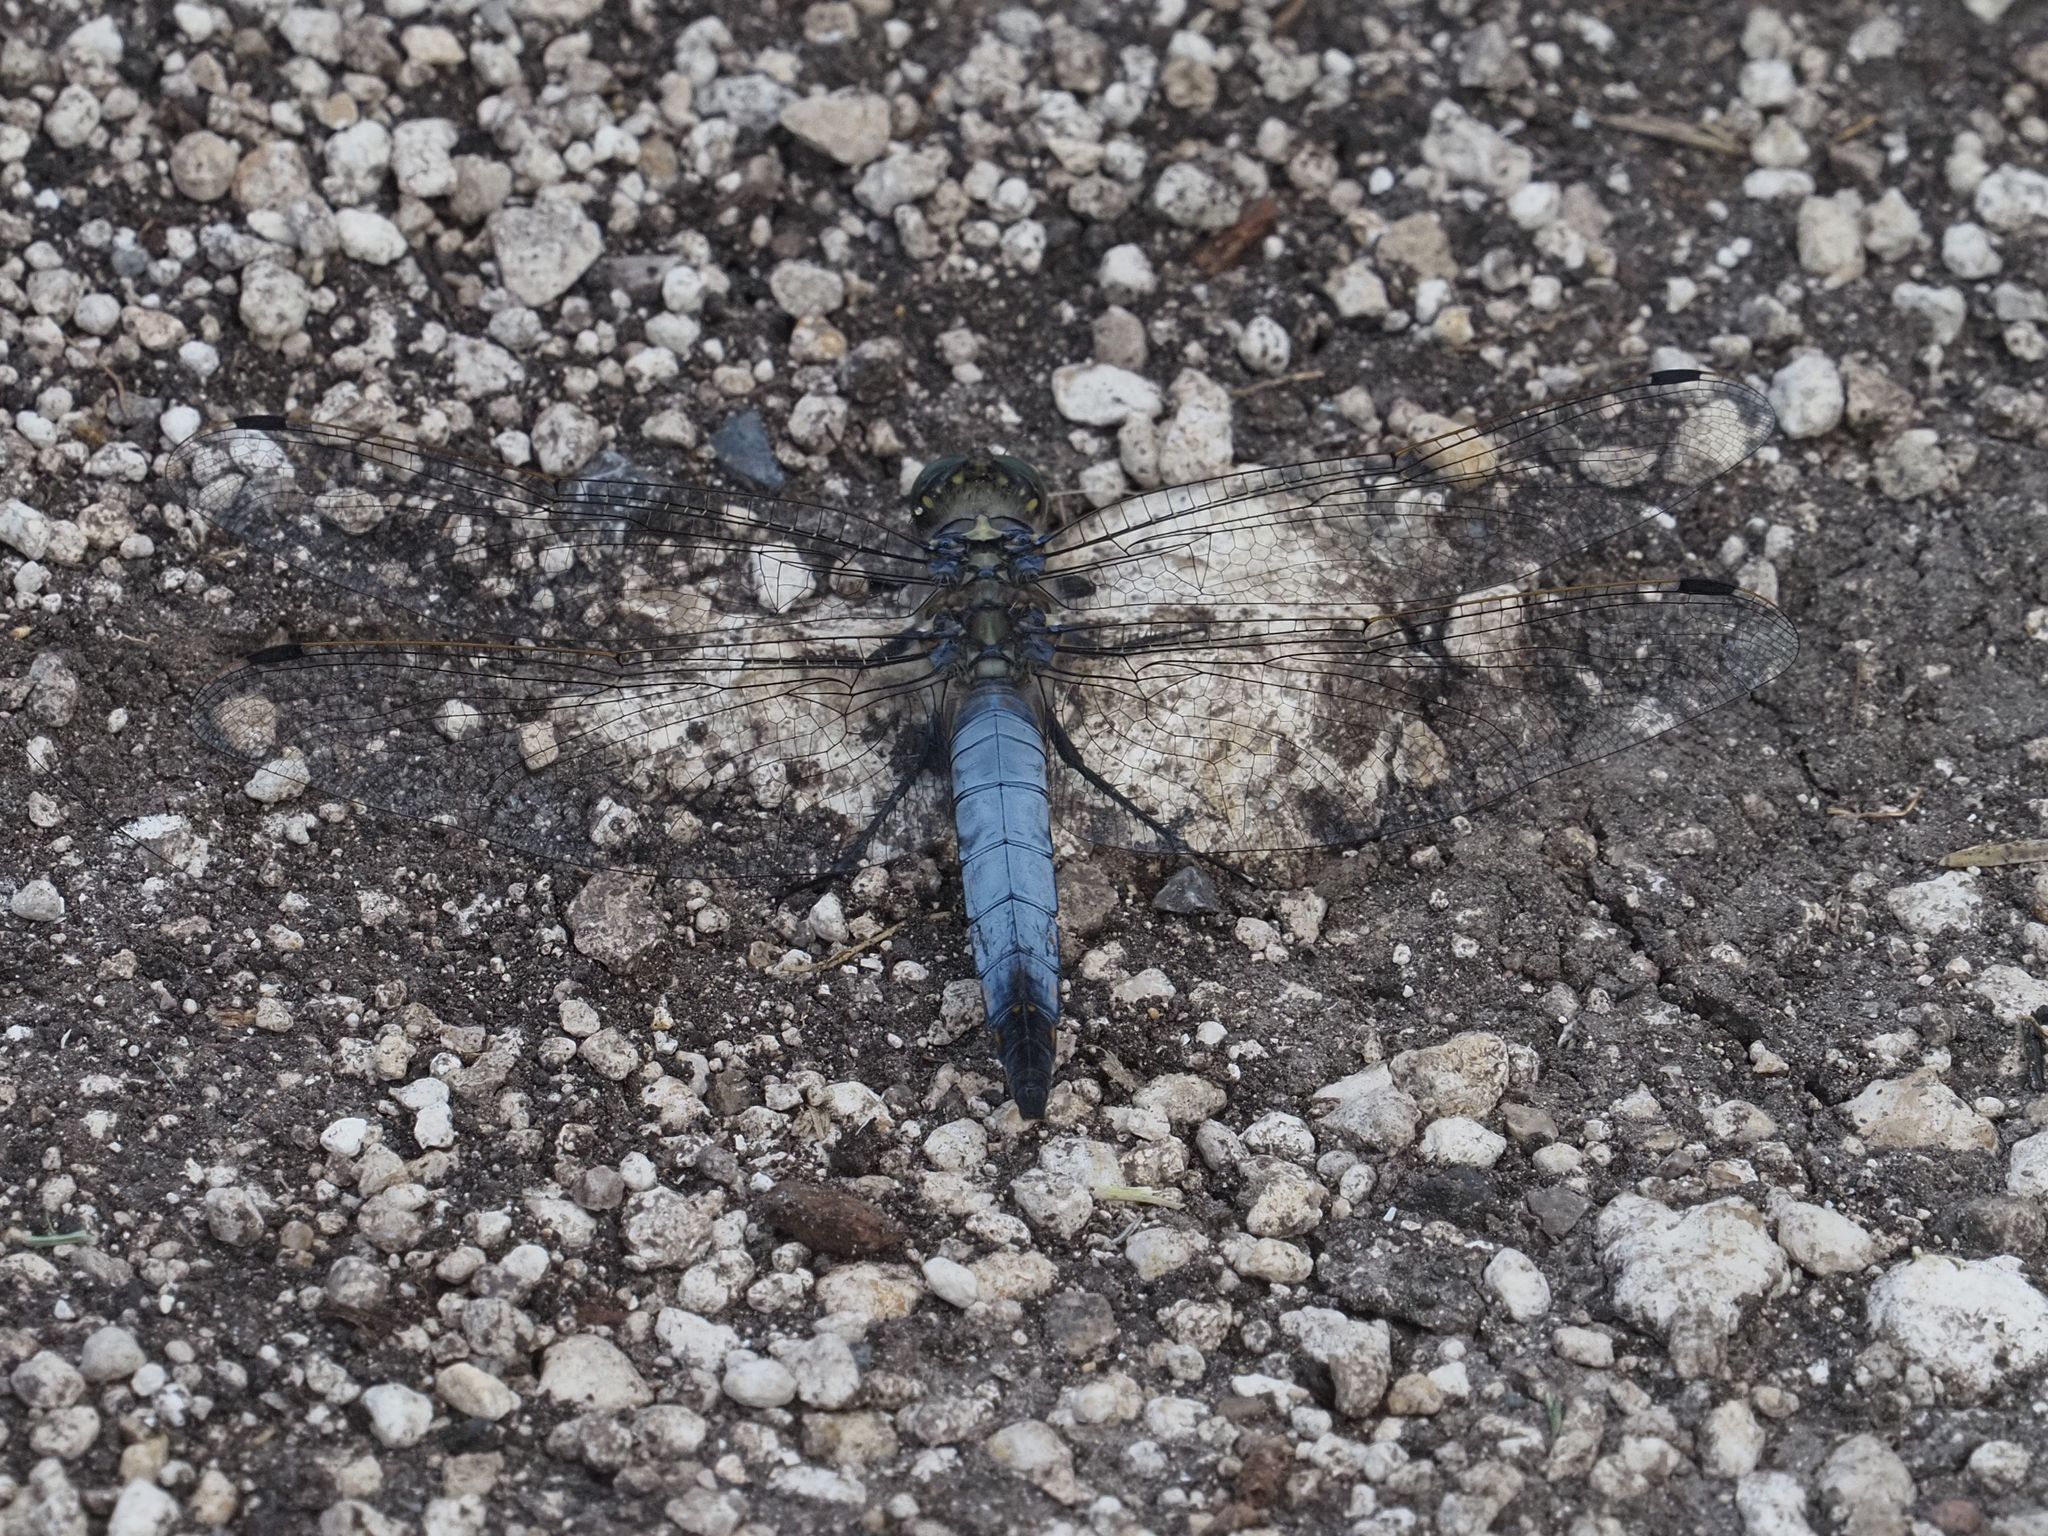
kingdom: Animalia
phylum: Arthropoda
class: Insecta
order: Odonata
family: Libellulidae
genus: Orthetrum
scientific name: Orthetrum cancellatum
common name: Black-tailed skimmer
